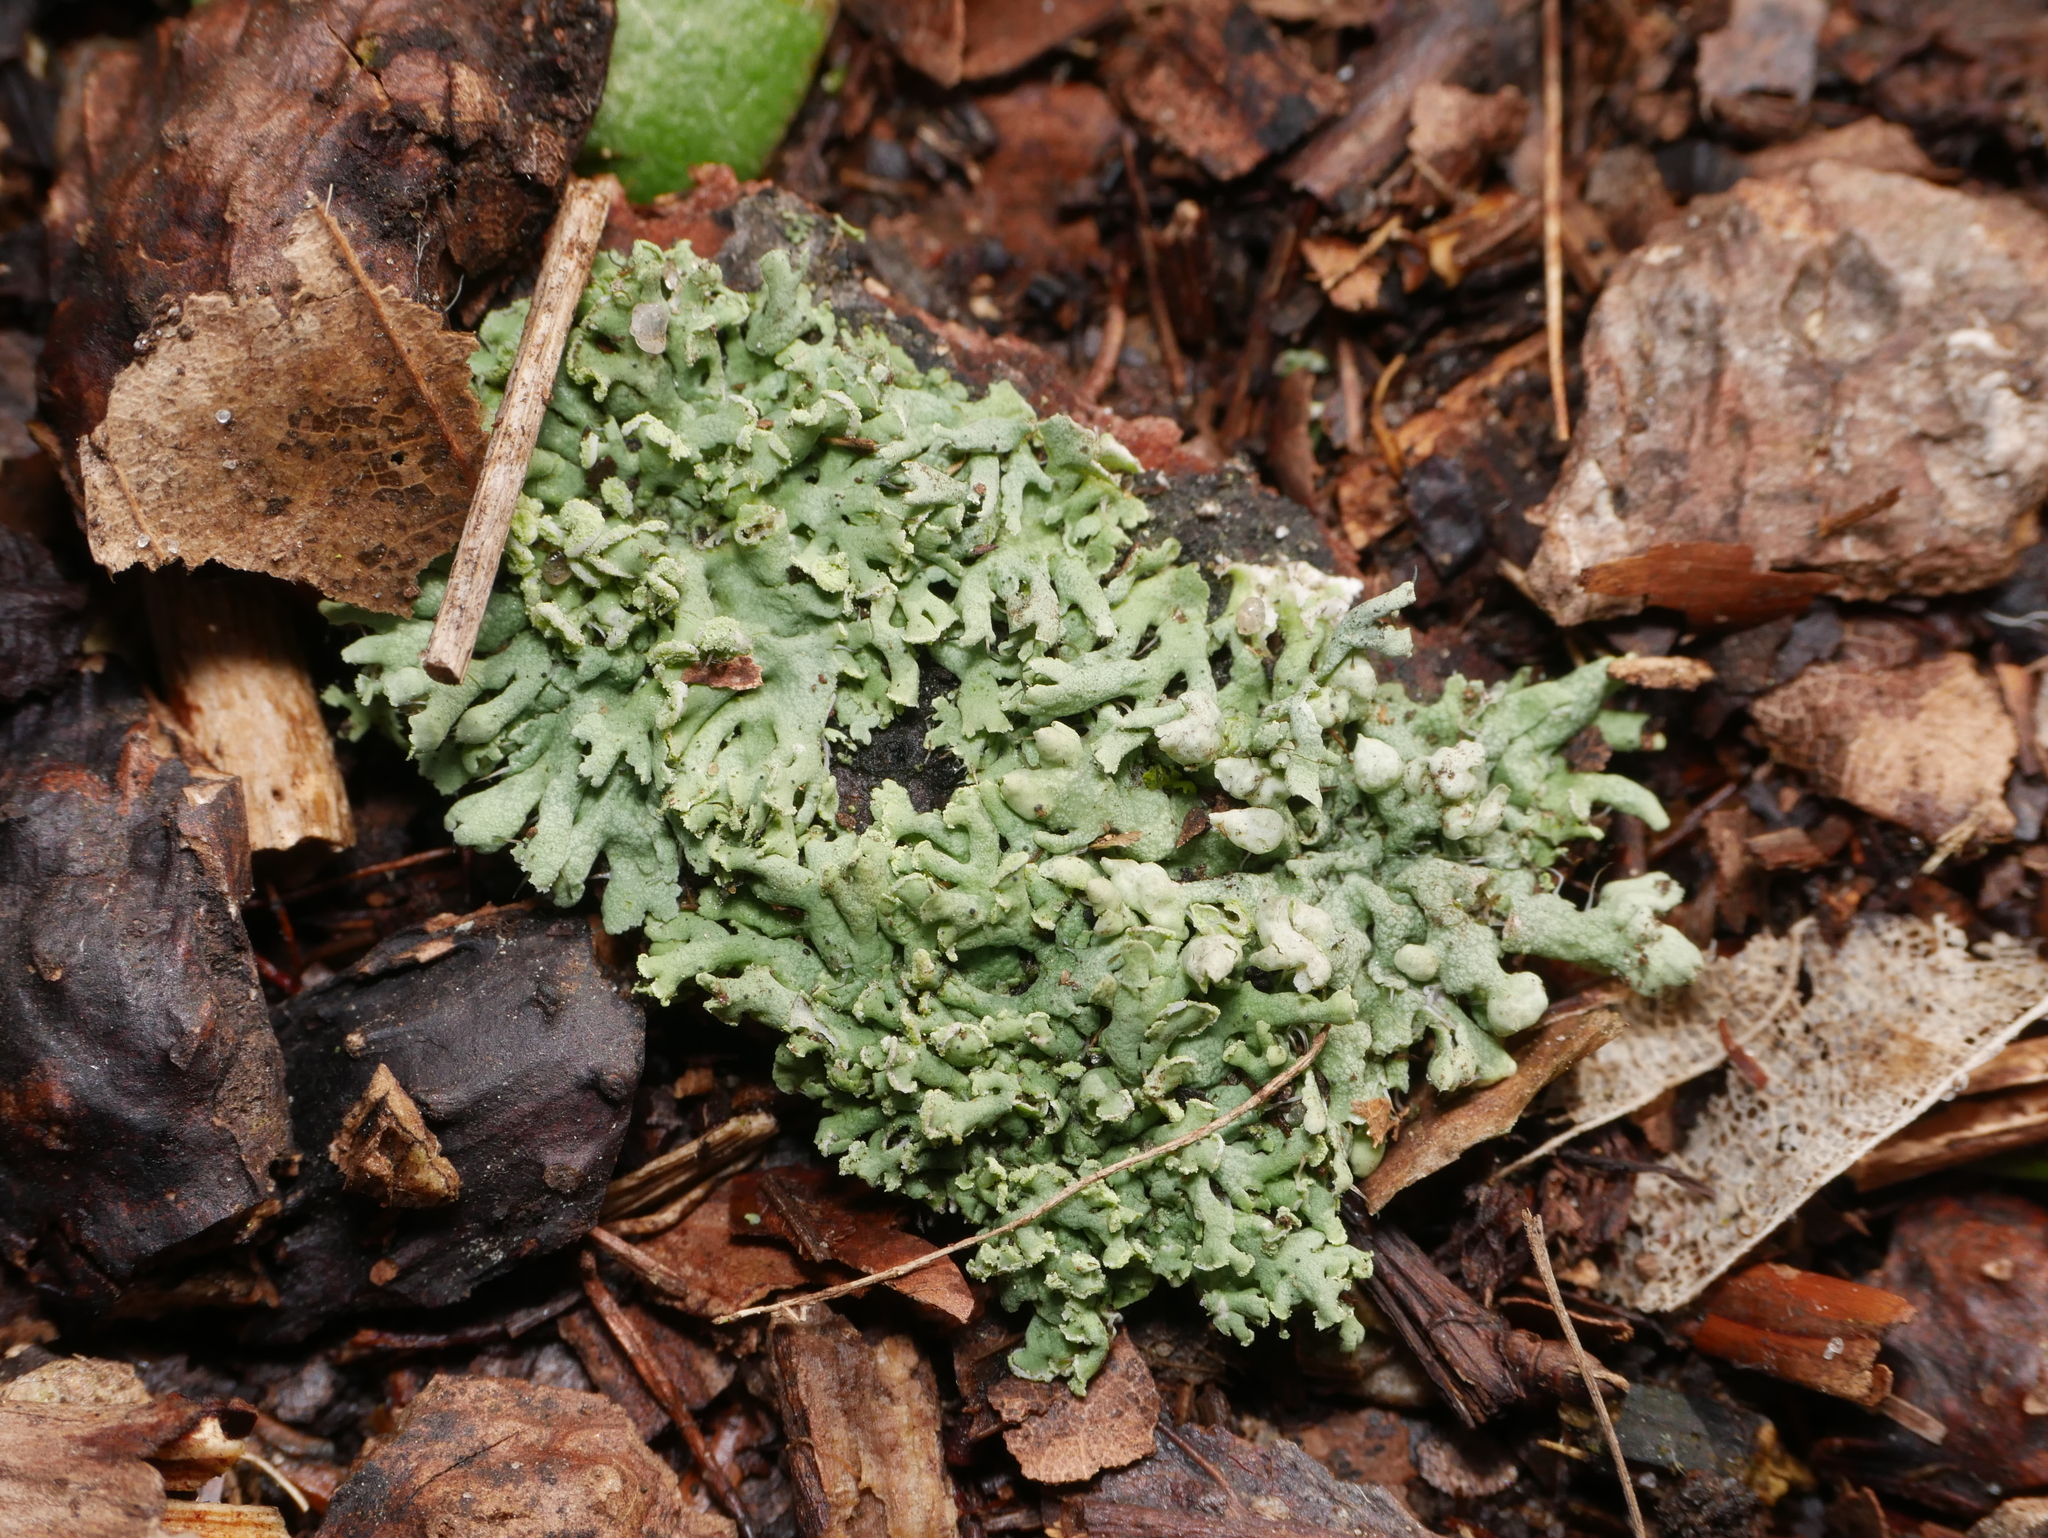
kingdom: Fungi
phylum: Ascomycota
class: Lecanoromycetes
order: Lecanorales
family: Parmeliaceae
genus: Hypogymnia
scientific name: Hypogymnia physodes
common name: Dark crottle
